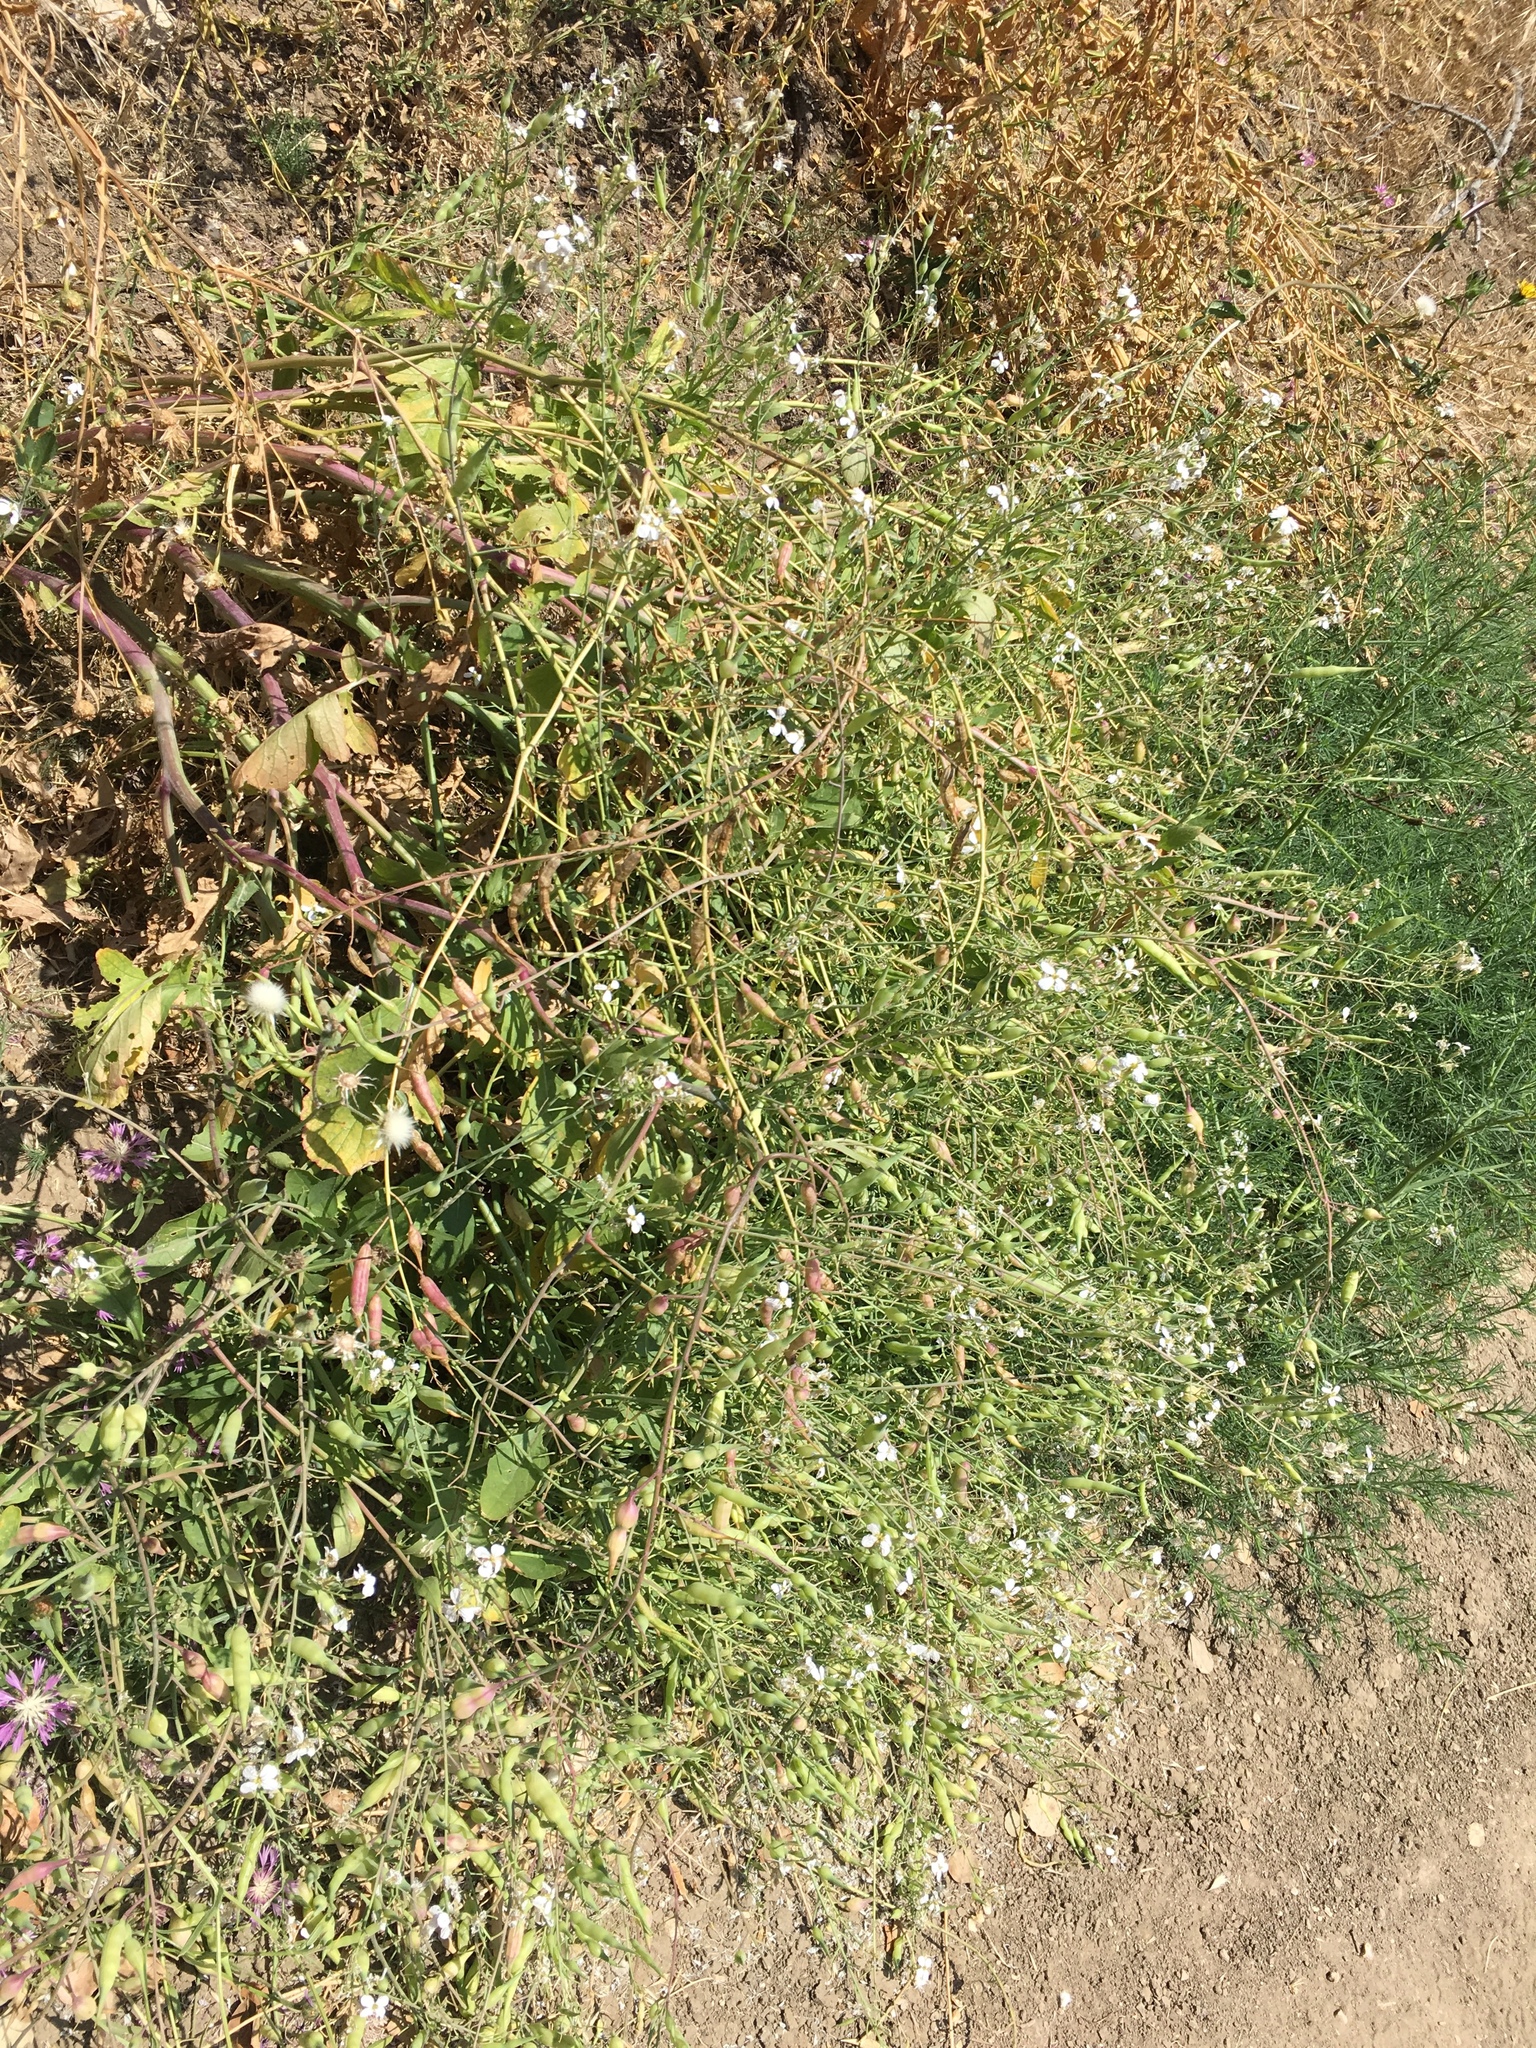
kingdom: Plantae
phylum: Tracheophyta
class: Magnoliopsida
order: Brassicales
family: Brassicaceae
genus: Raphanus
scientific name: Raphanus sativus
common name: Cultivated radish
